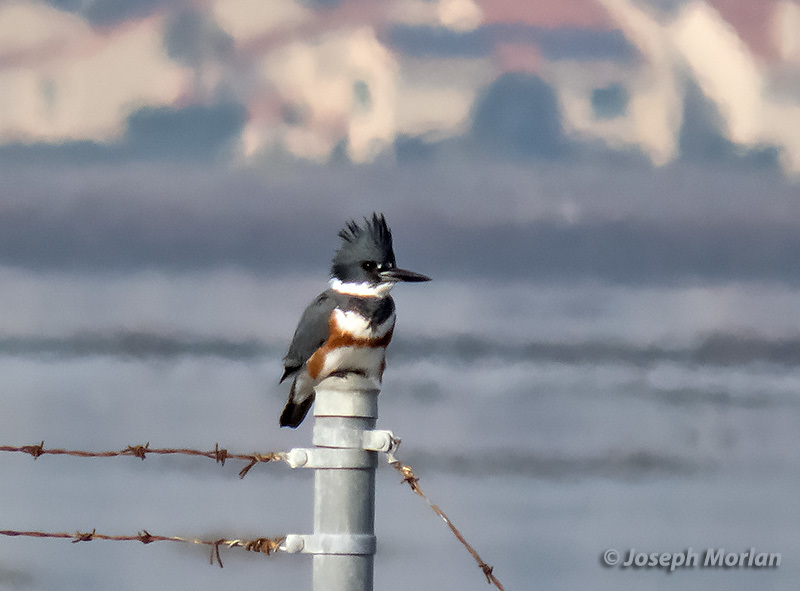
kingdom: Animalia
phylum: Chordata
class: Aves
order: Coraciiformes
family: Alcedinidae
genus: Megaceryle
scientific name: Megaceryle alcyon
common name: Belted kingfisher
